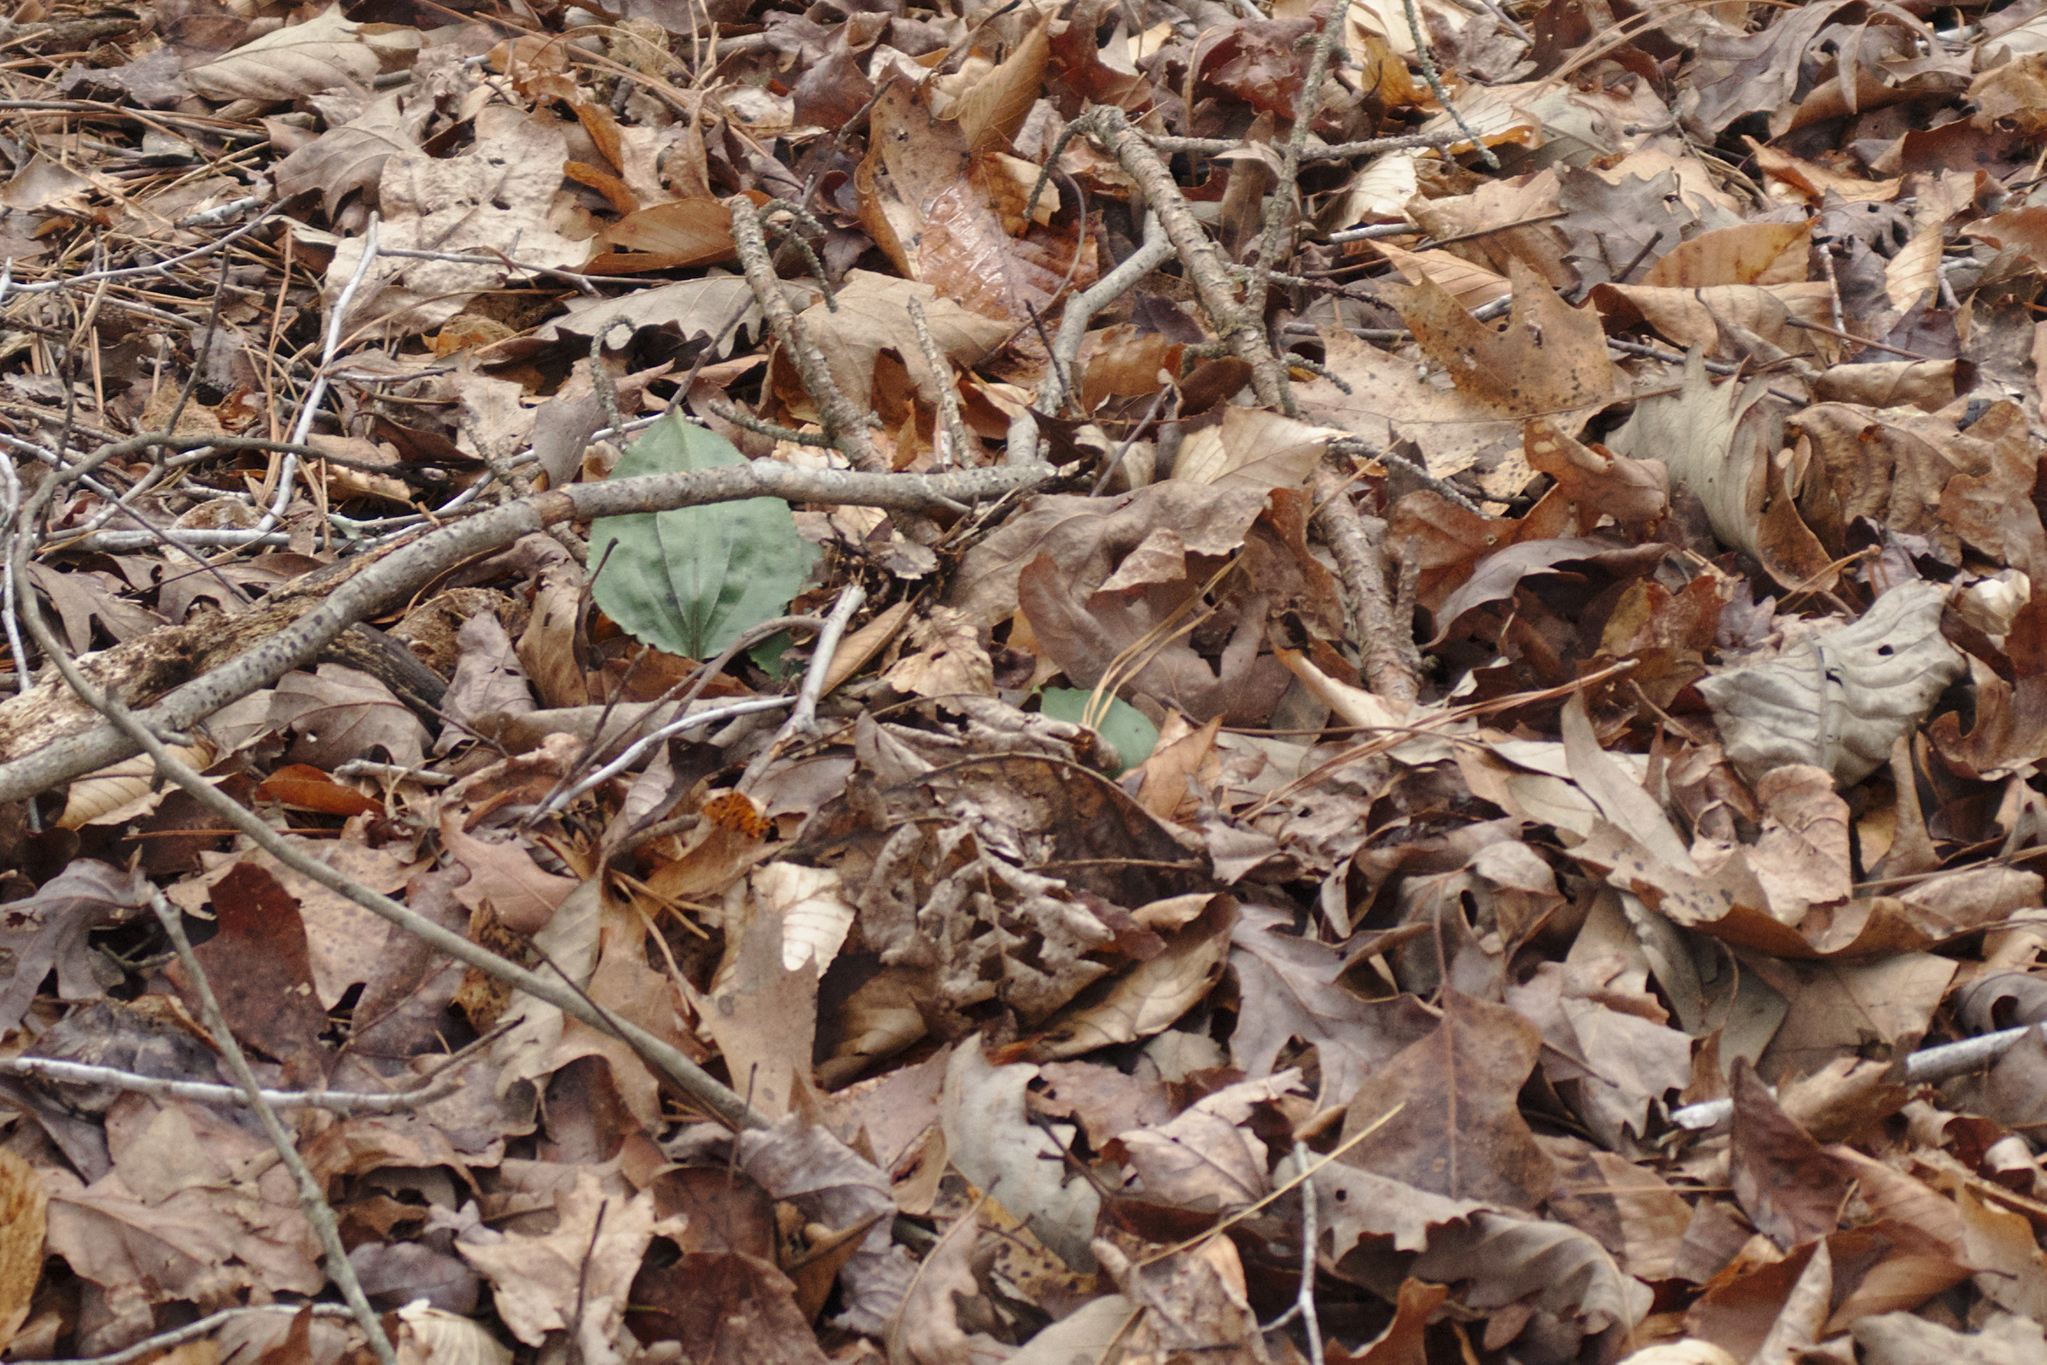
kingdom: Plantae
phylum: Tracheophyta
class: Liliopsida
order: Asparagales
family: Orchidaceae
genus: Tipularia
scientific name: Tipularia discolor
